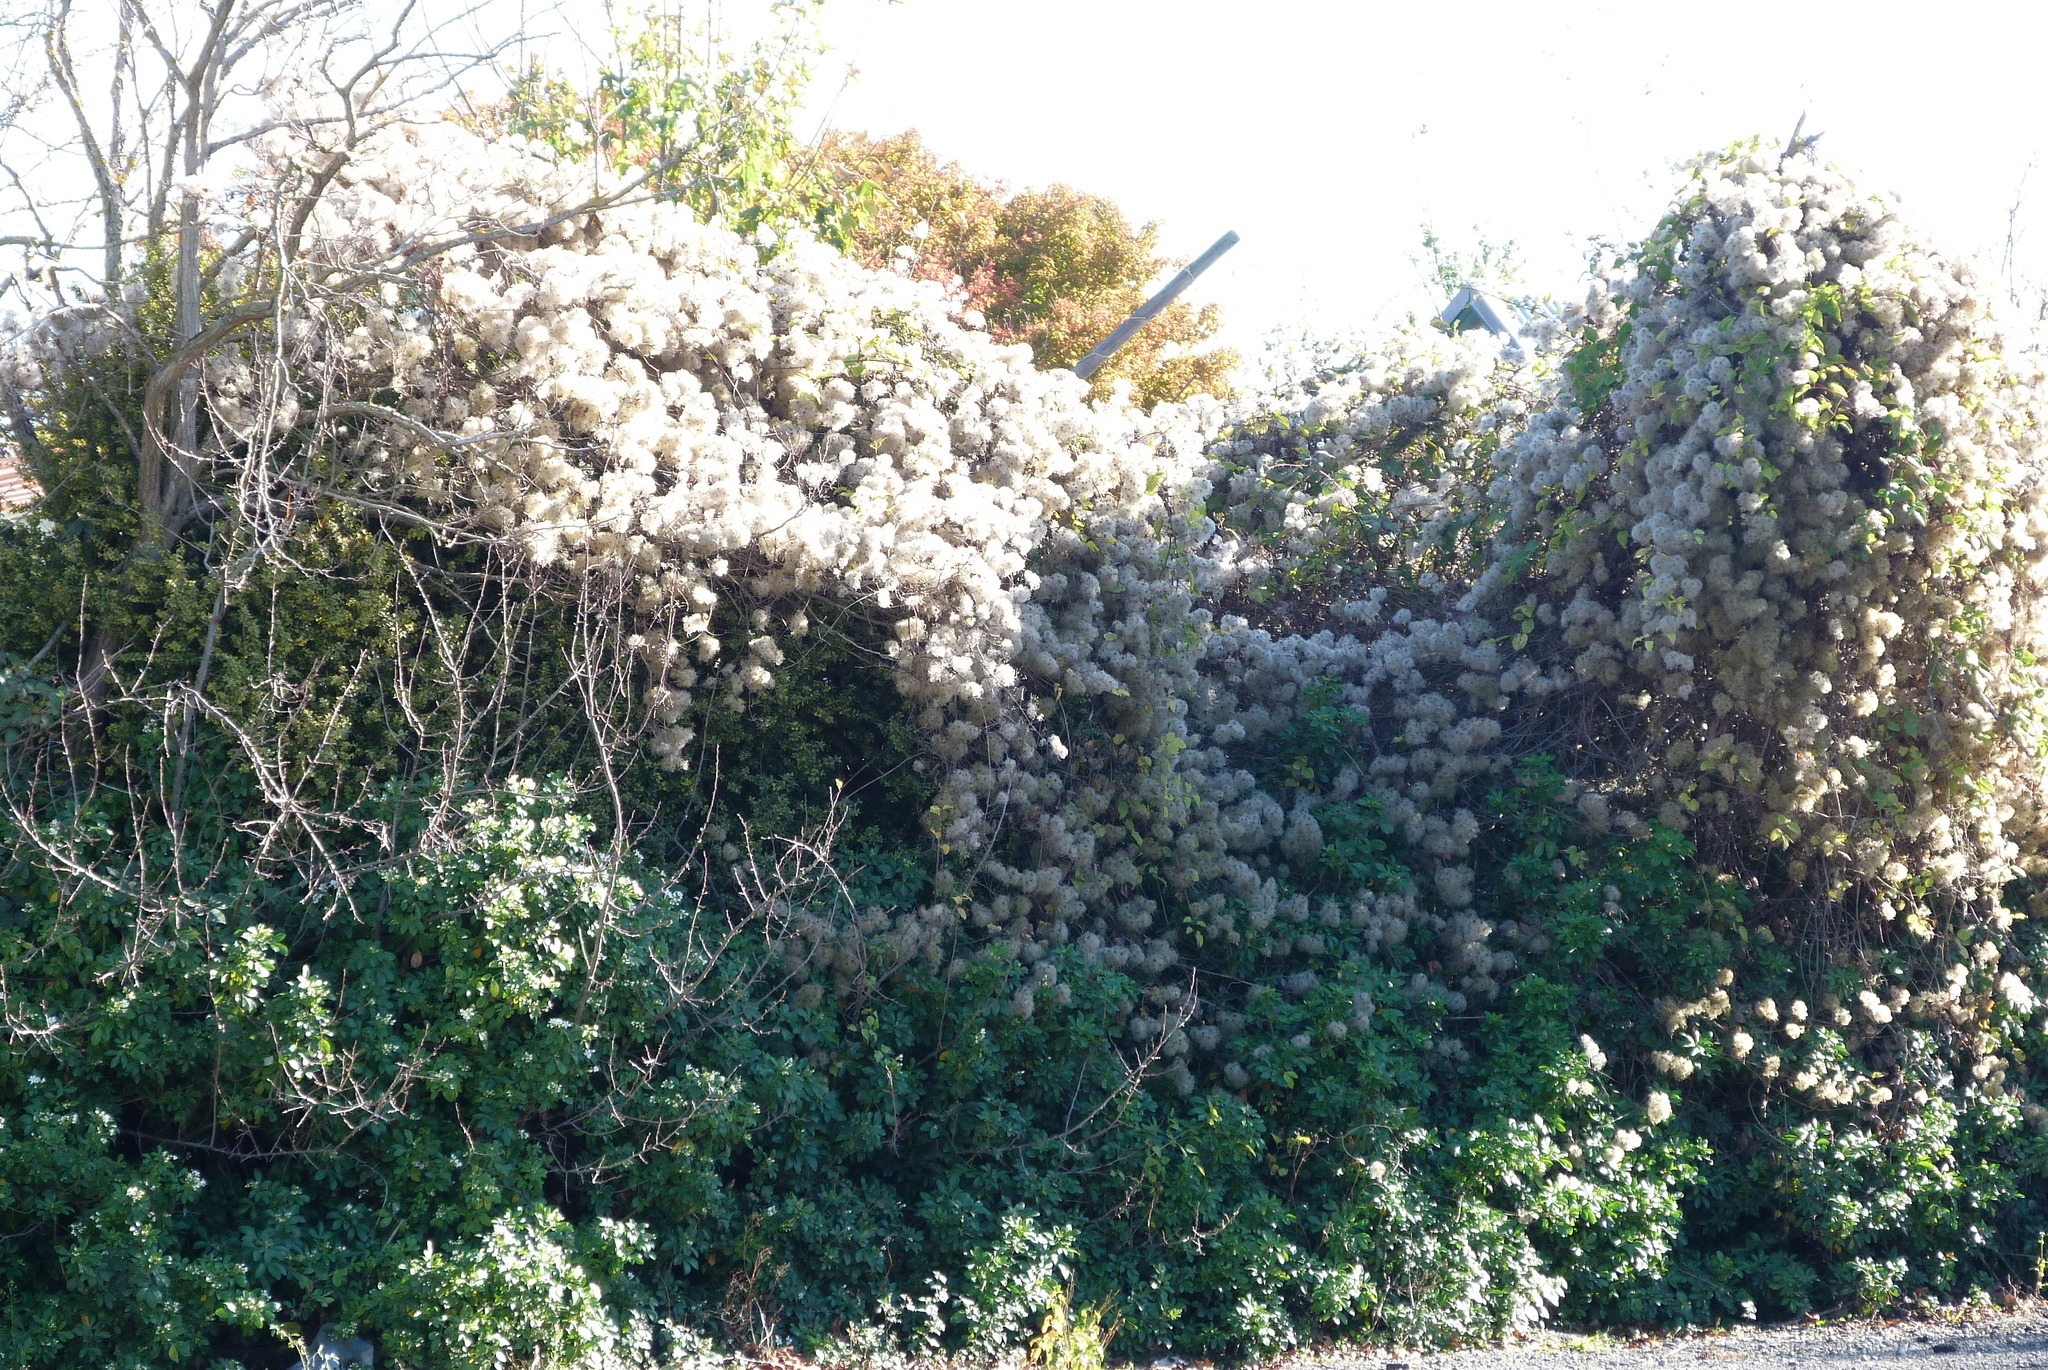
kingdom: Plantae
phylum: Tracheophyta
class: Magnoliopsida
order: Ranunculales
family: Ranunculaceae
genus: Clematis
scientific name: Clematis vitalba
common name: Evergreen clematis
